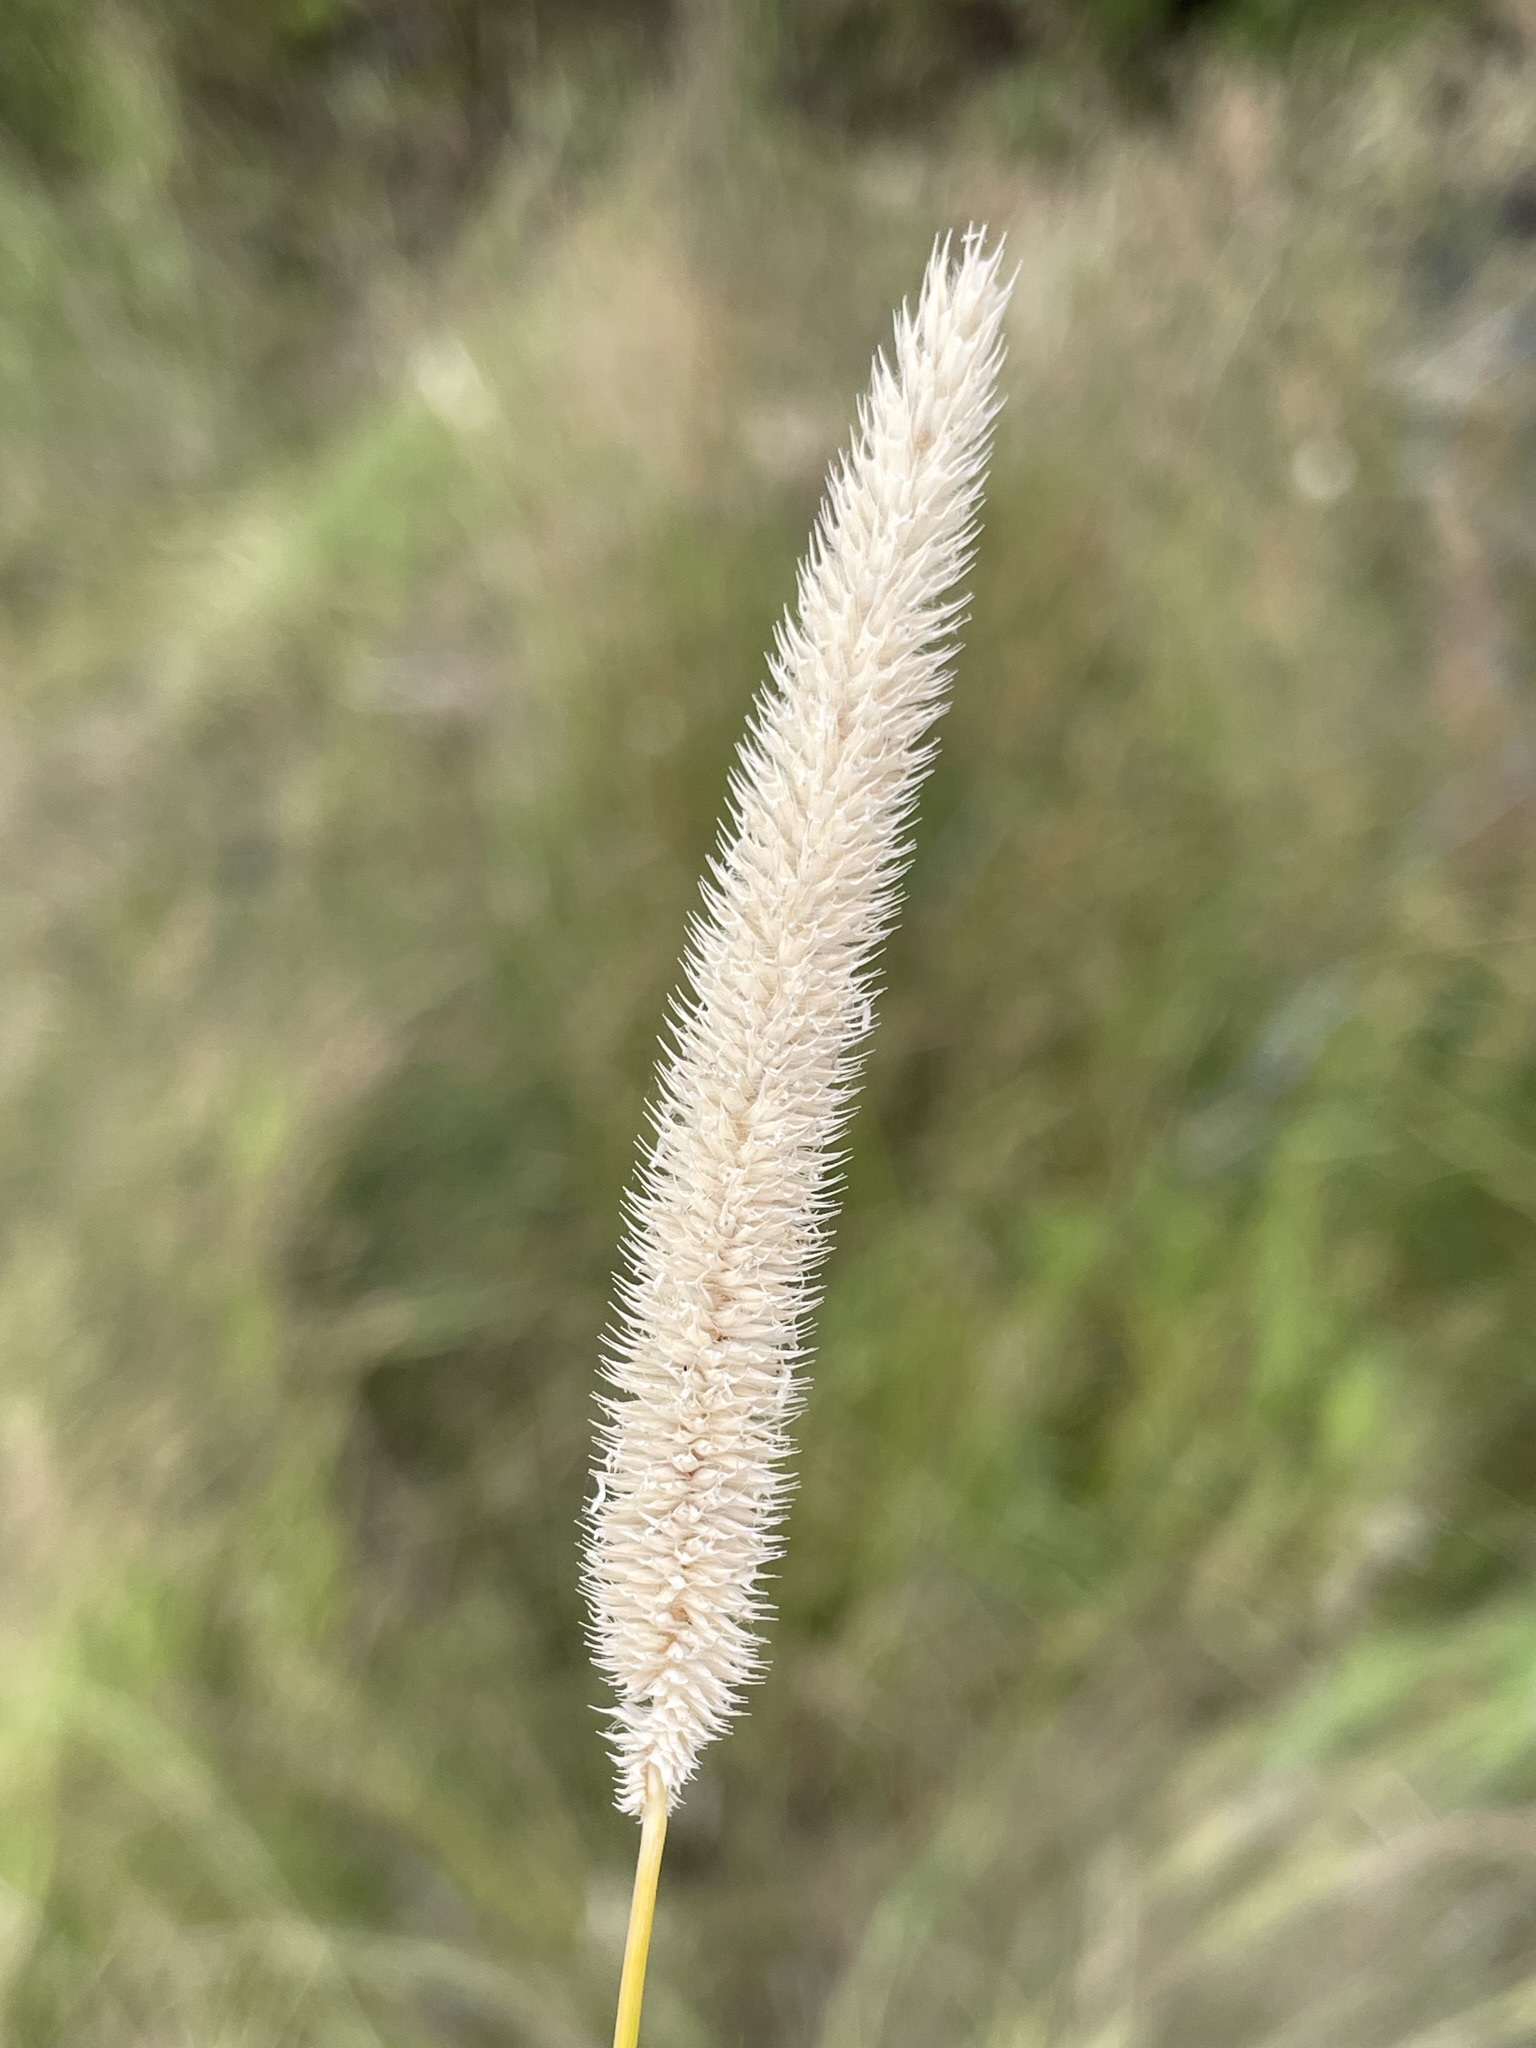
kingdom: Plantae
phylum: Tracheophyta
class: Liliopsida
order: Poales
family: Poaceae
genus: Phleum
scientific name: Phleum pratense
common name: Timothy grass
